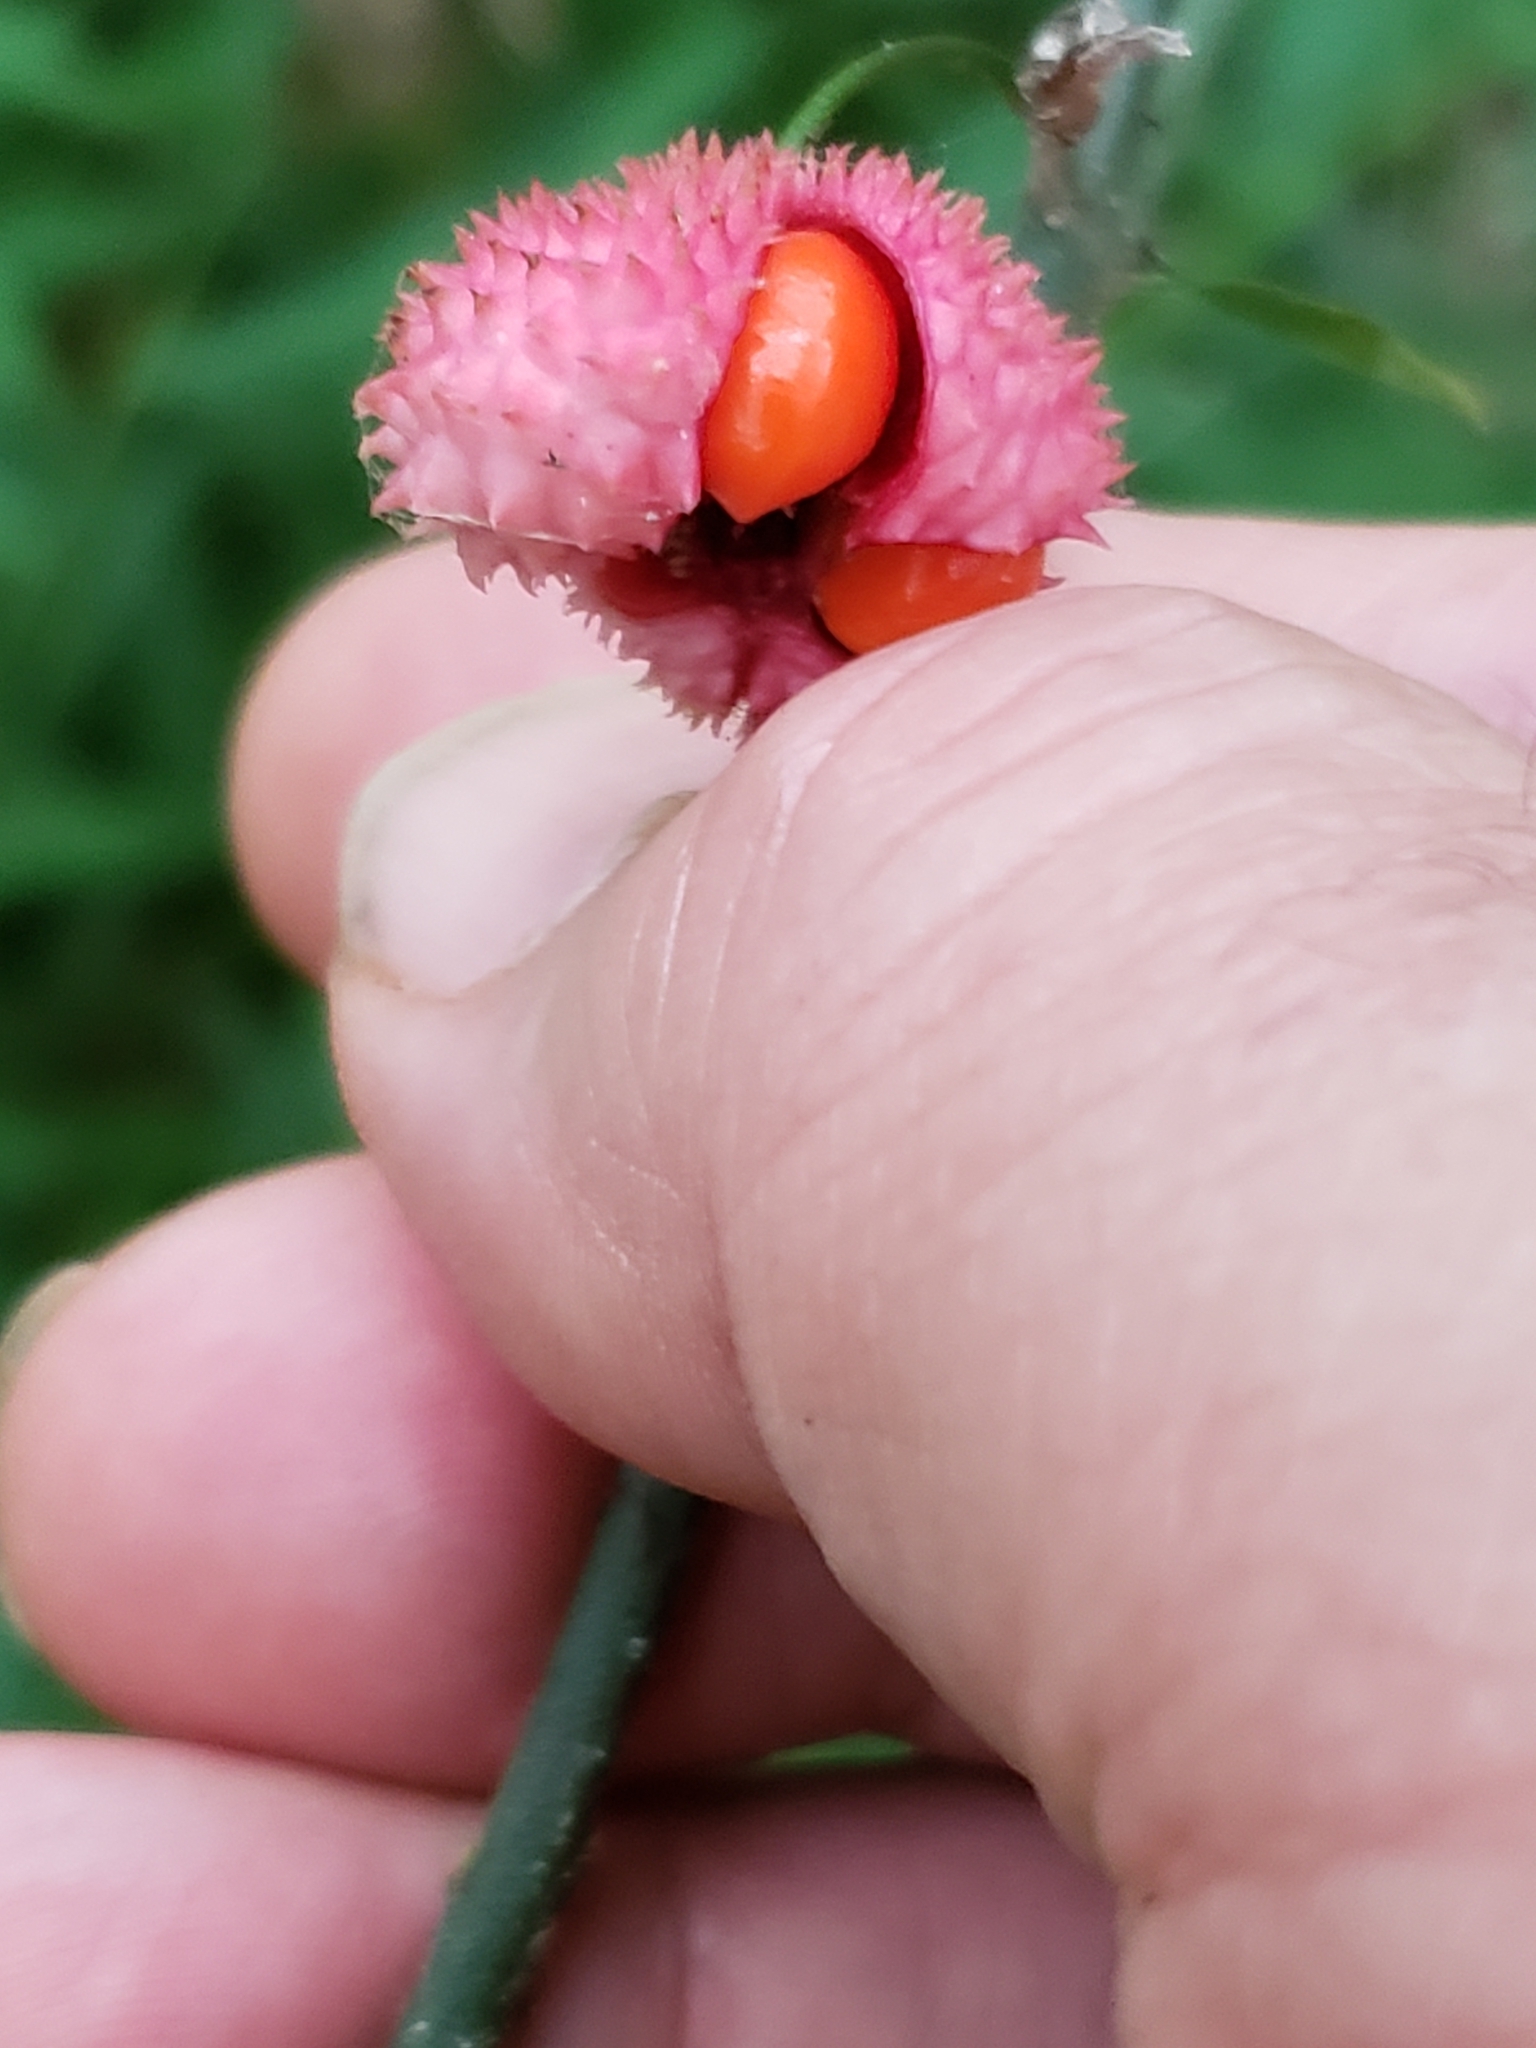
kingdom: Plantae
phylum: Tracheophyta
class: Magnoliopsida
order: Celastrales
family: Celastraceae
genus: Euonymus
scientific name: Euonymus americanus
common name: Bursting-heart
